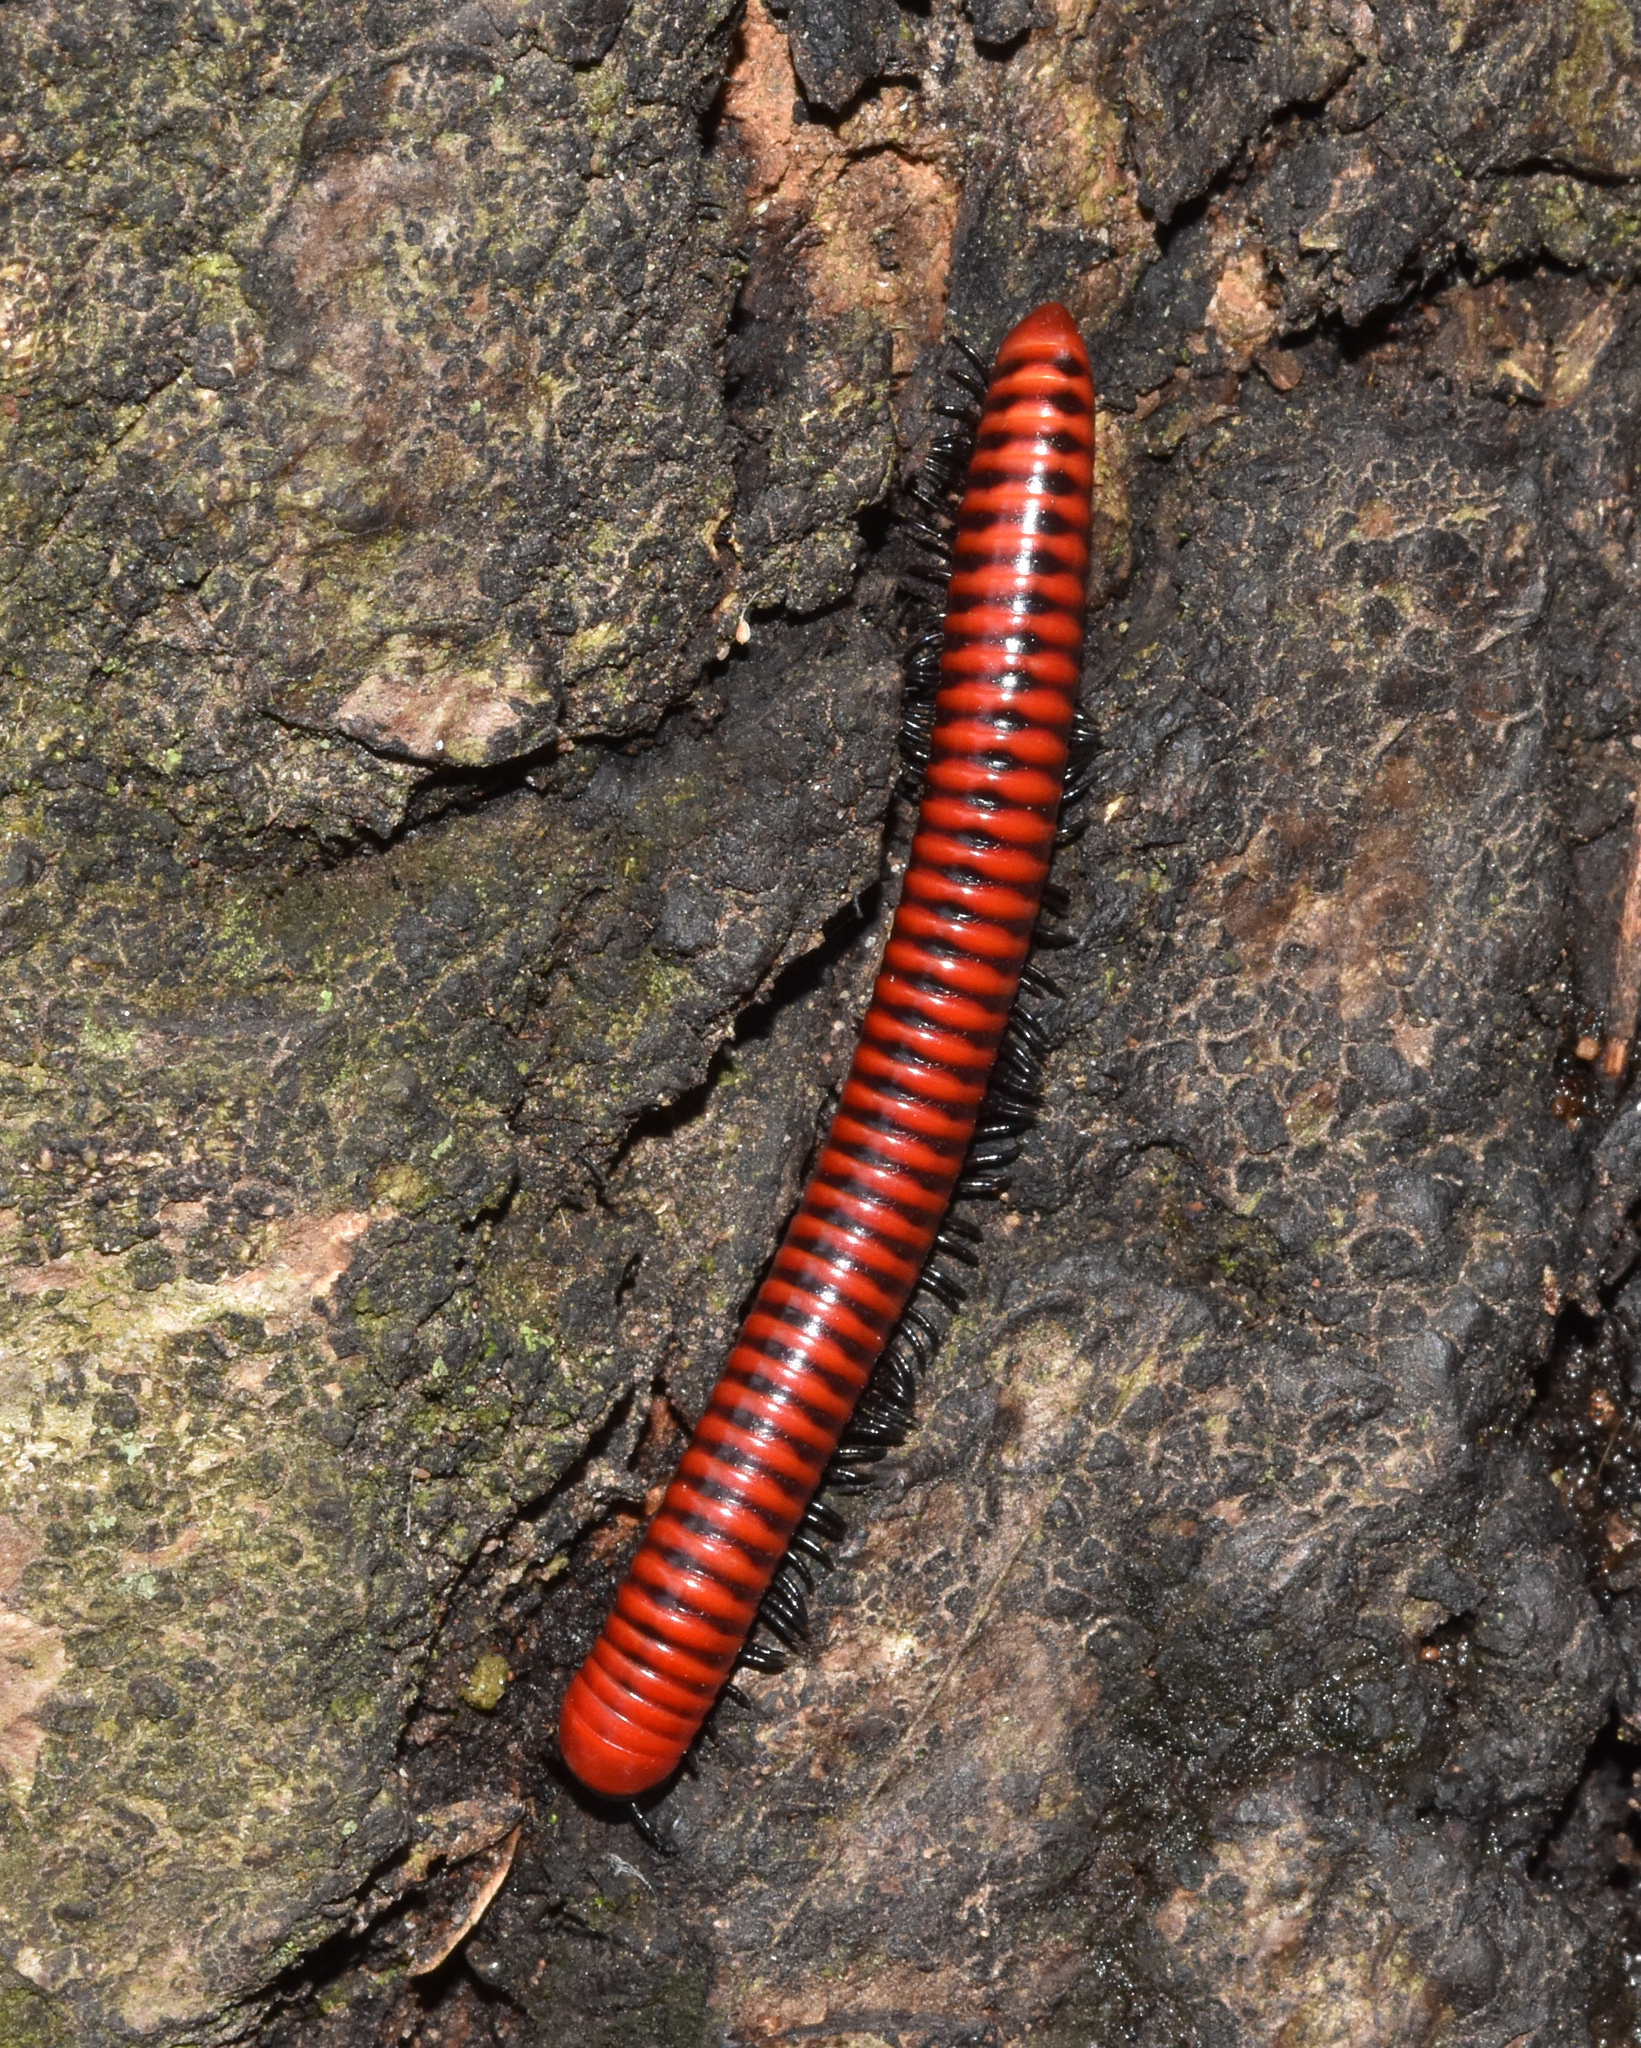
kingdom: Animalia
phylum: Arthropoda
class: Diplopoda
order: Spirobolida
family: Pachybolidae
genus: Centrobolus
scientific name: Centrobolus anulatus
